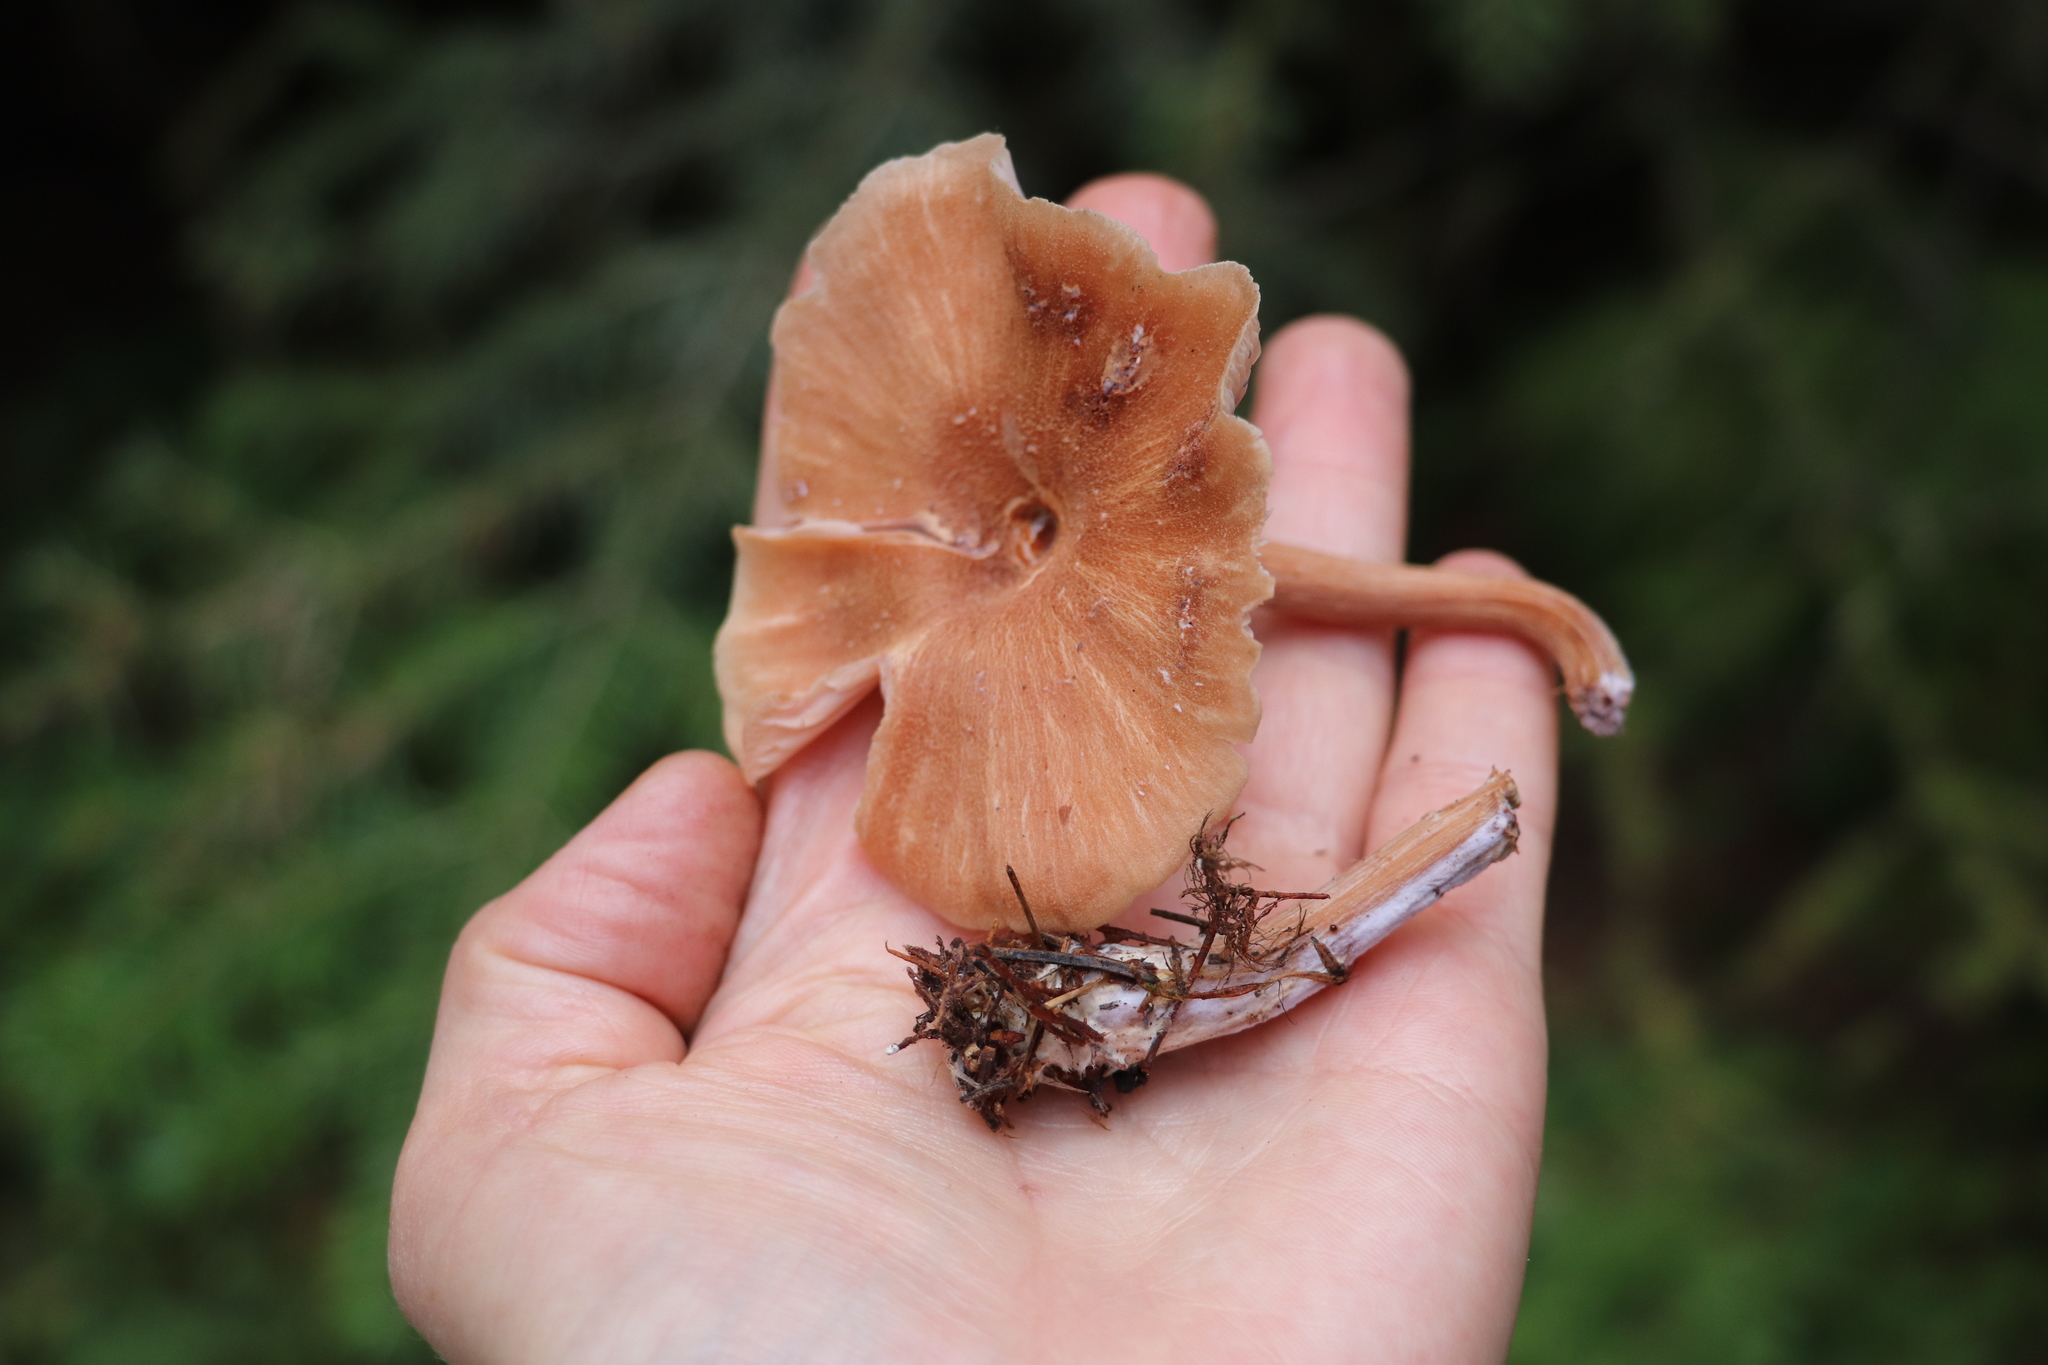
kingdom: Fungi
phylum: Basidiomycota
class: Agaricomycetes
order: Agaricales
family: Hydnangiaceae
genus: Laccaria
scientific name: Laccaria proxima
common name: Scurfy deceiver
